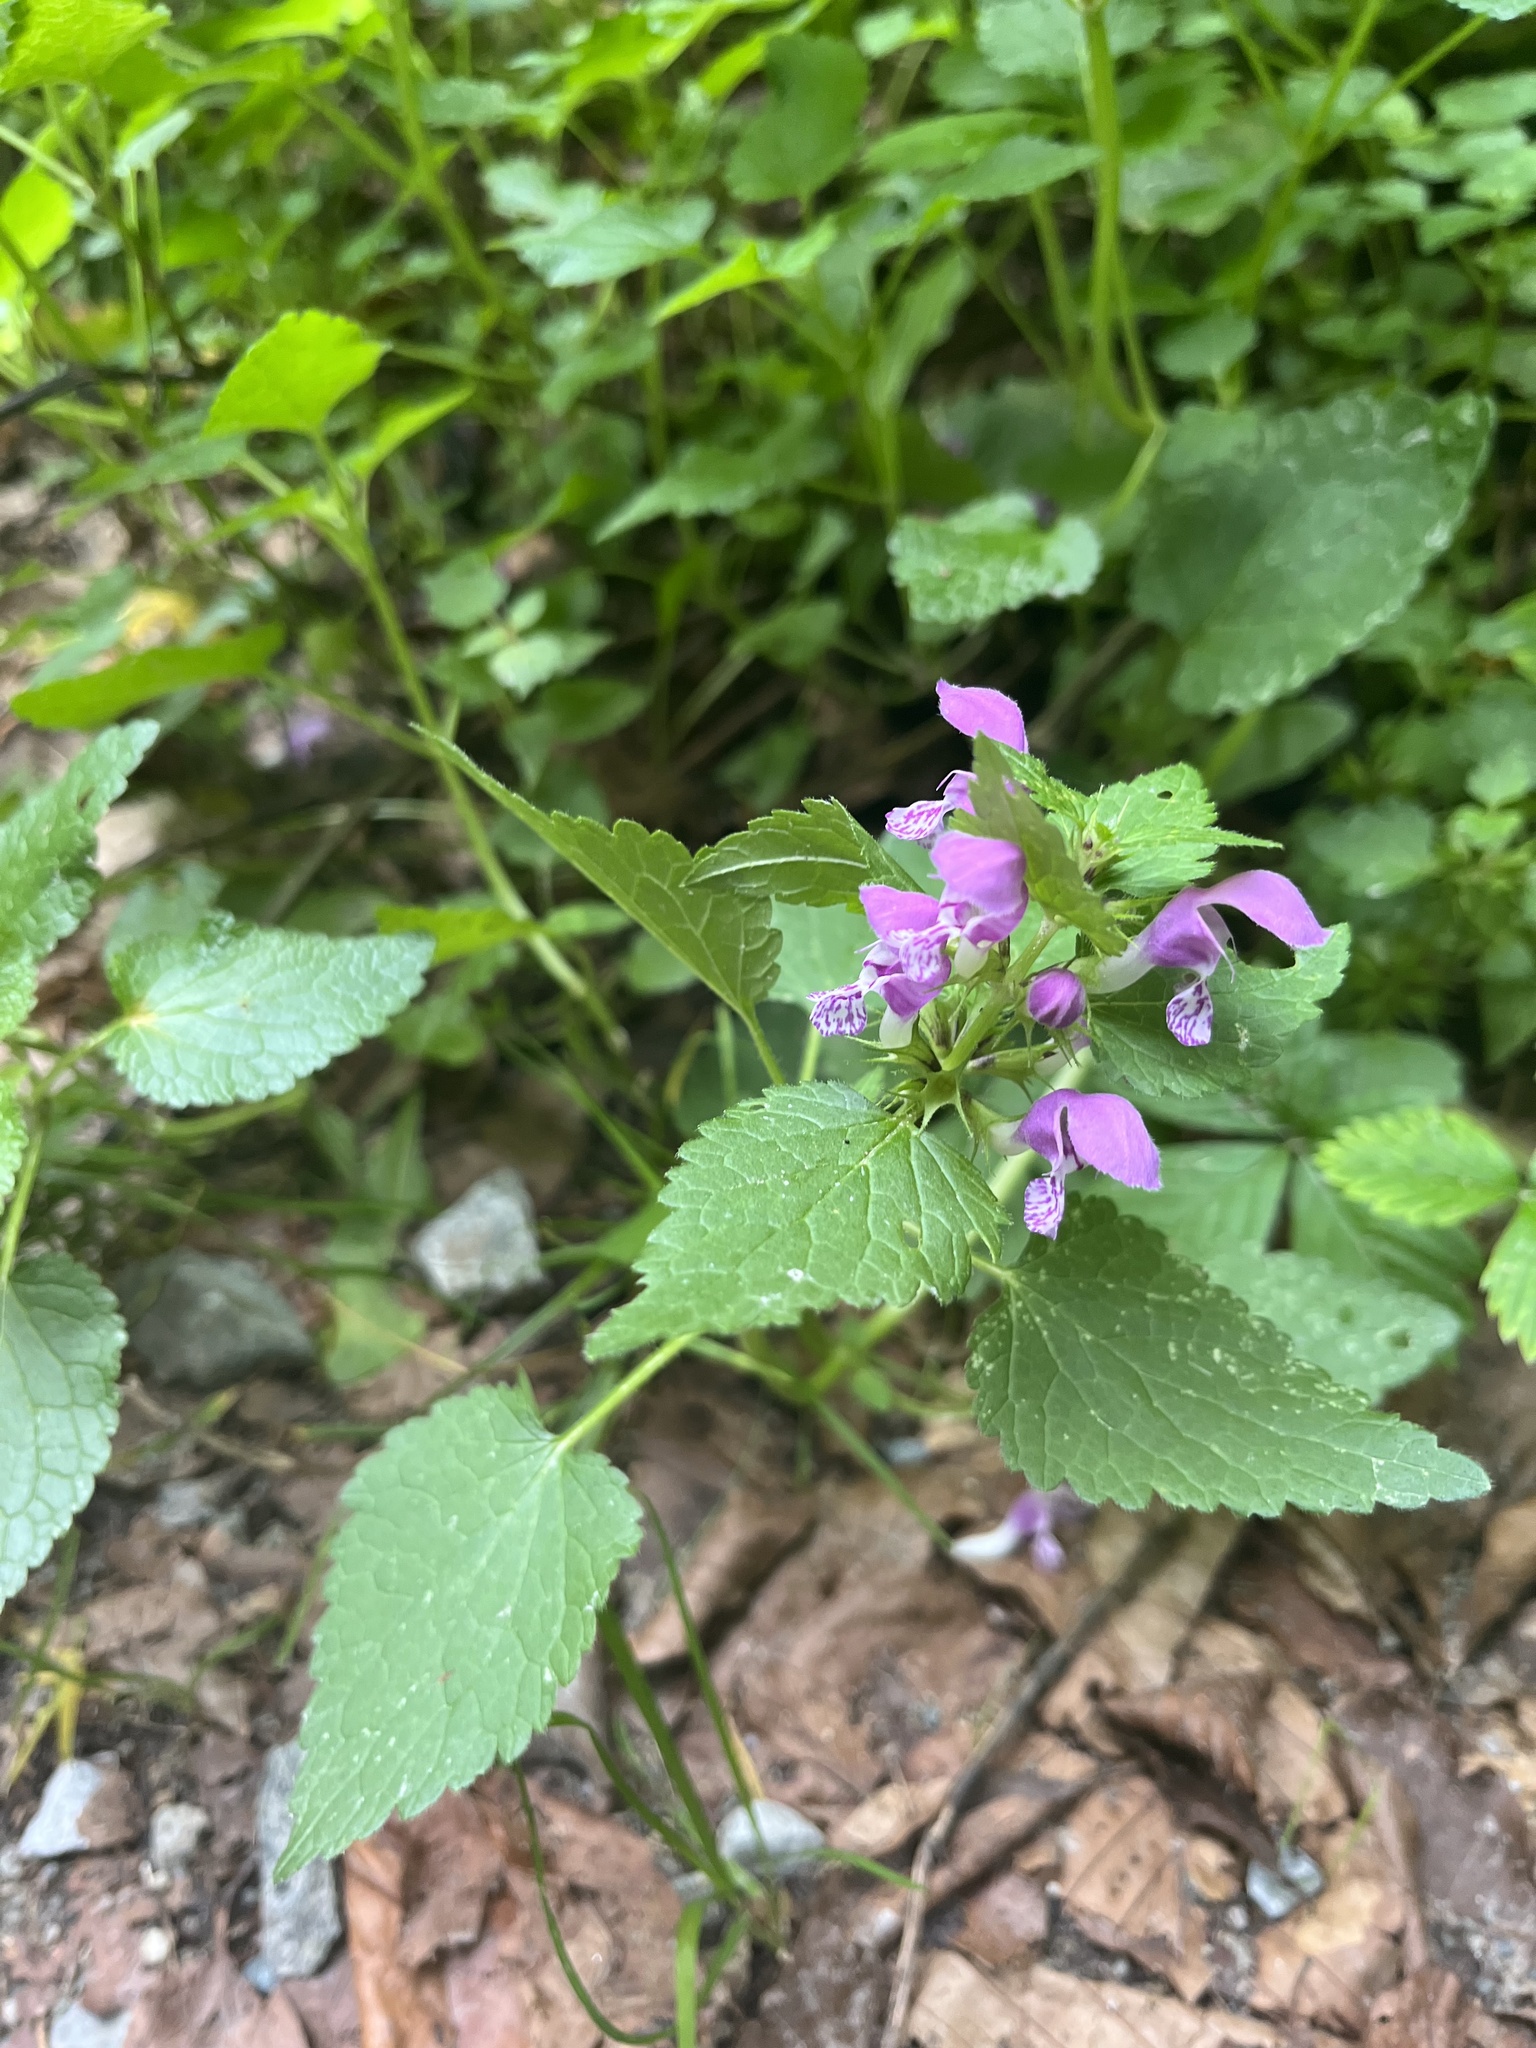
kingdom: Plantae
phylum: Tracheophyta
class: Magnoliopsida
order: Lamiales
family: Lamiaceae
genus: Galeopsis
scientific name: Galeopsis pubescens
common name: Downy hemp-nettle
